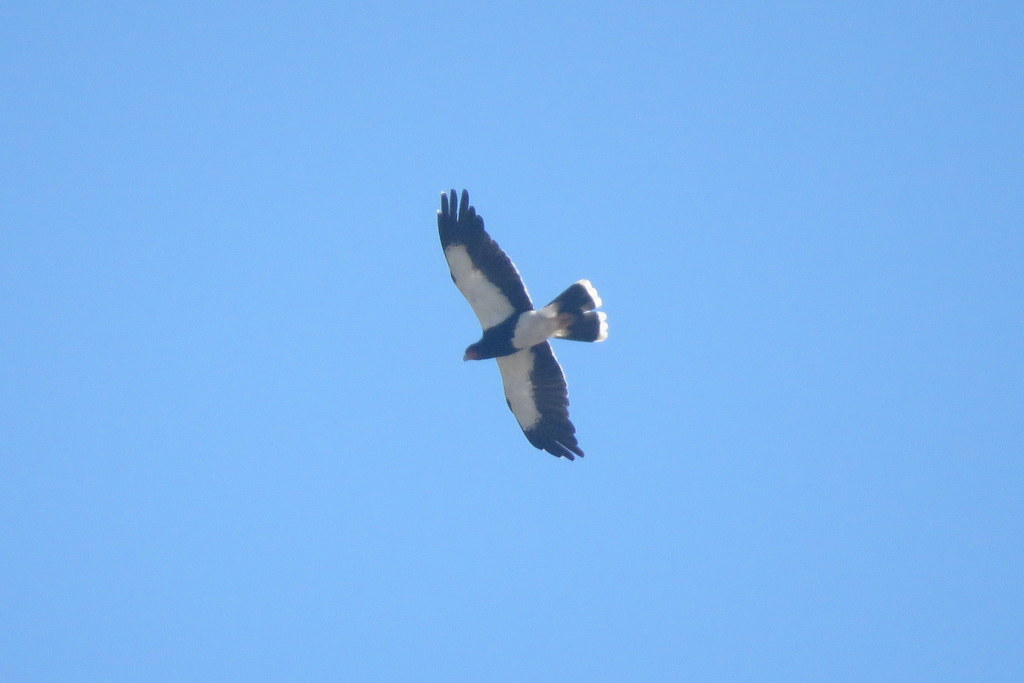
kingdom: Animalia
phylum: Chordata
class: Aves
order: Falconiformes
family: Falconidae
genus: Daptrius
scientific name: Daptrius
